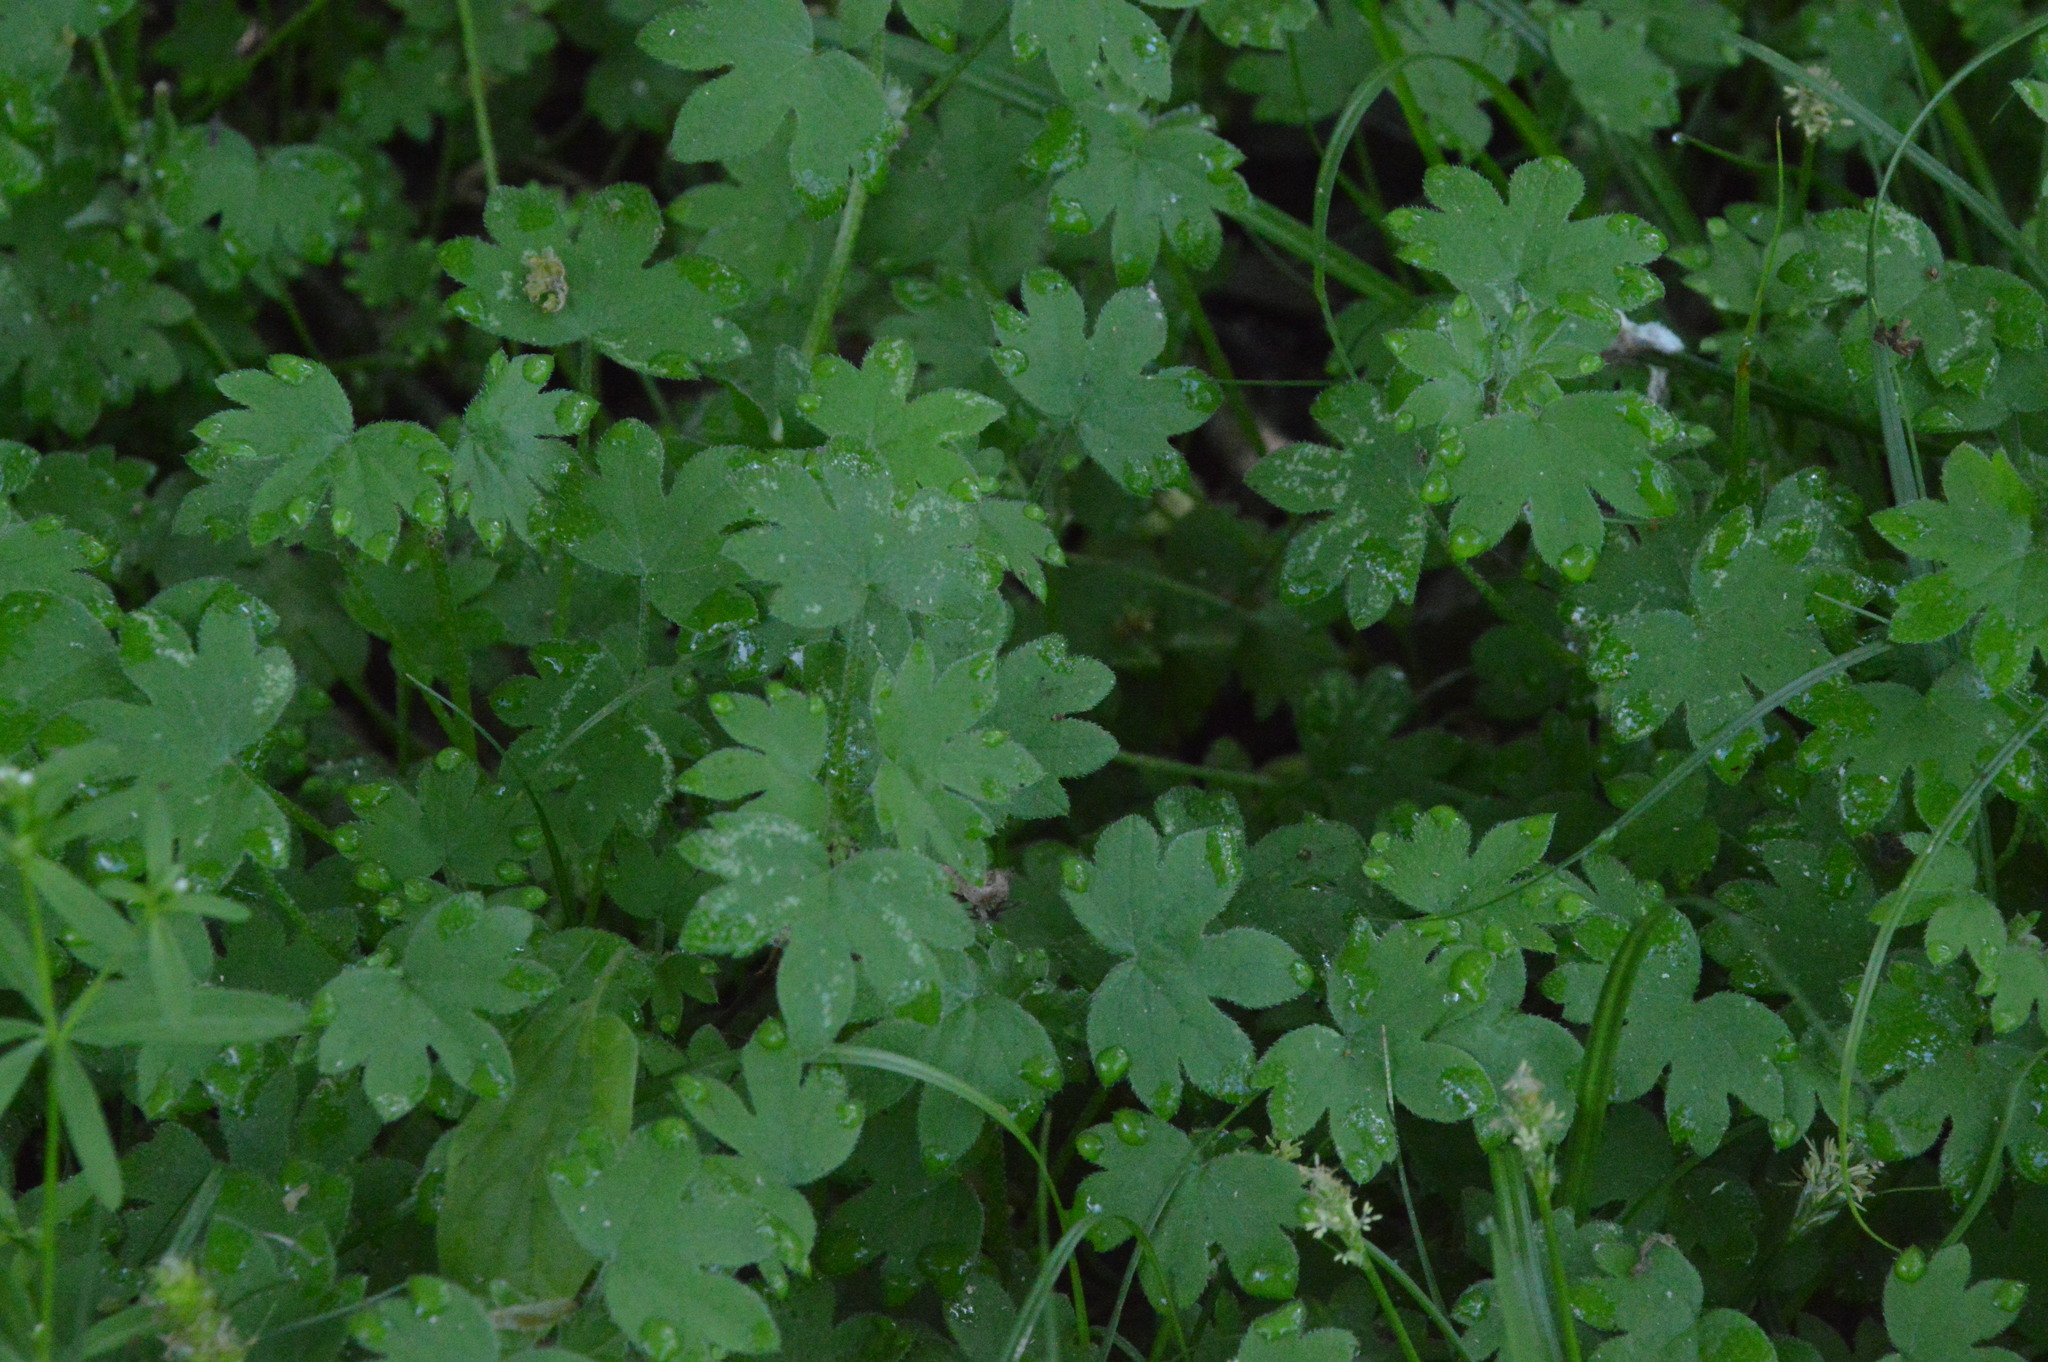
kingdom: Plantae
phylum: Tracheophyta
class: Magnoliopsida
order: Apiales
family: Apiaceae
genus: Bowlesia
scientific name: Bowlesia incana
